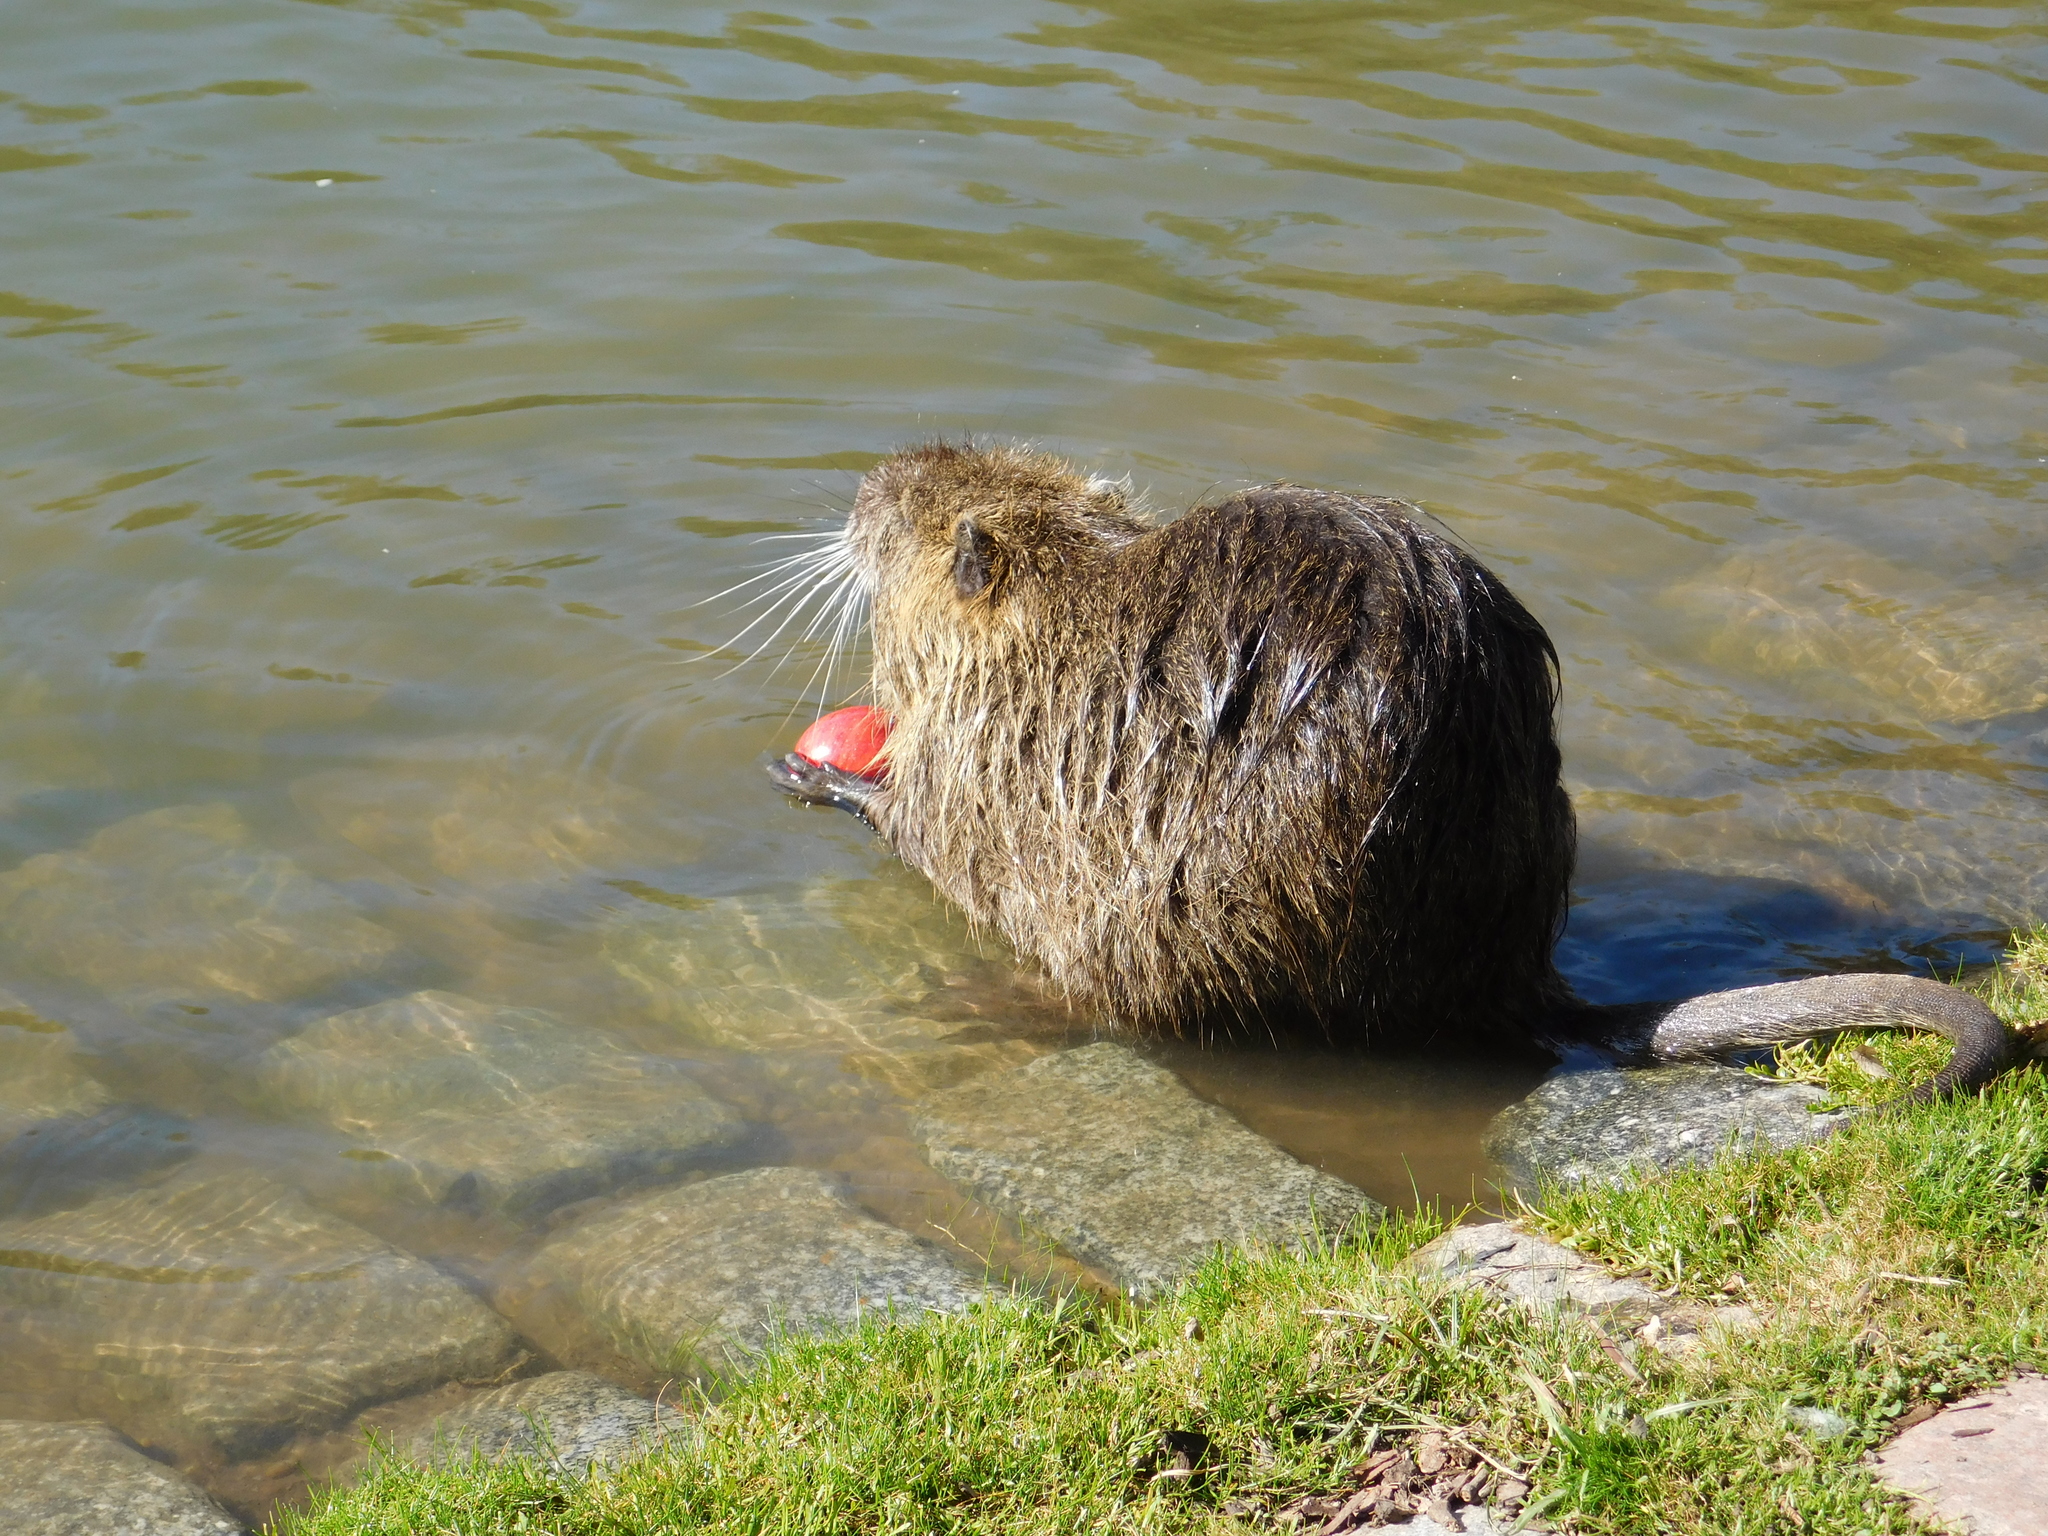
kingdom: Animalia
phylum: Chordata
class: Mammalia
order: Rodentia
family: Myocastoridae
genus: Myocastor
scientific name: Myocastor coypus
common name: Coypu
